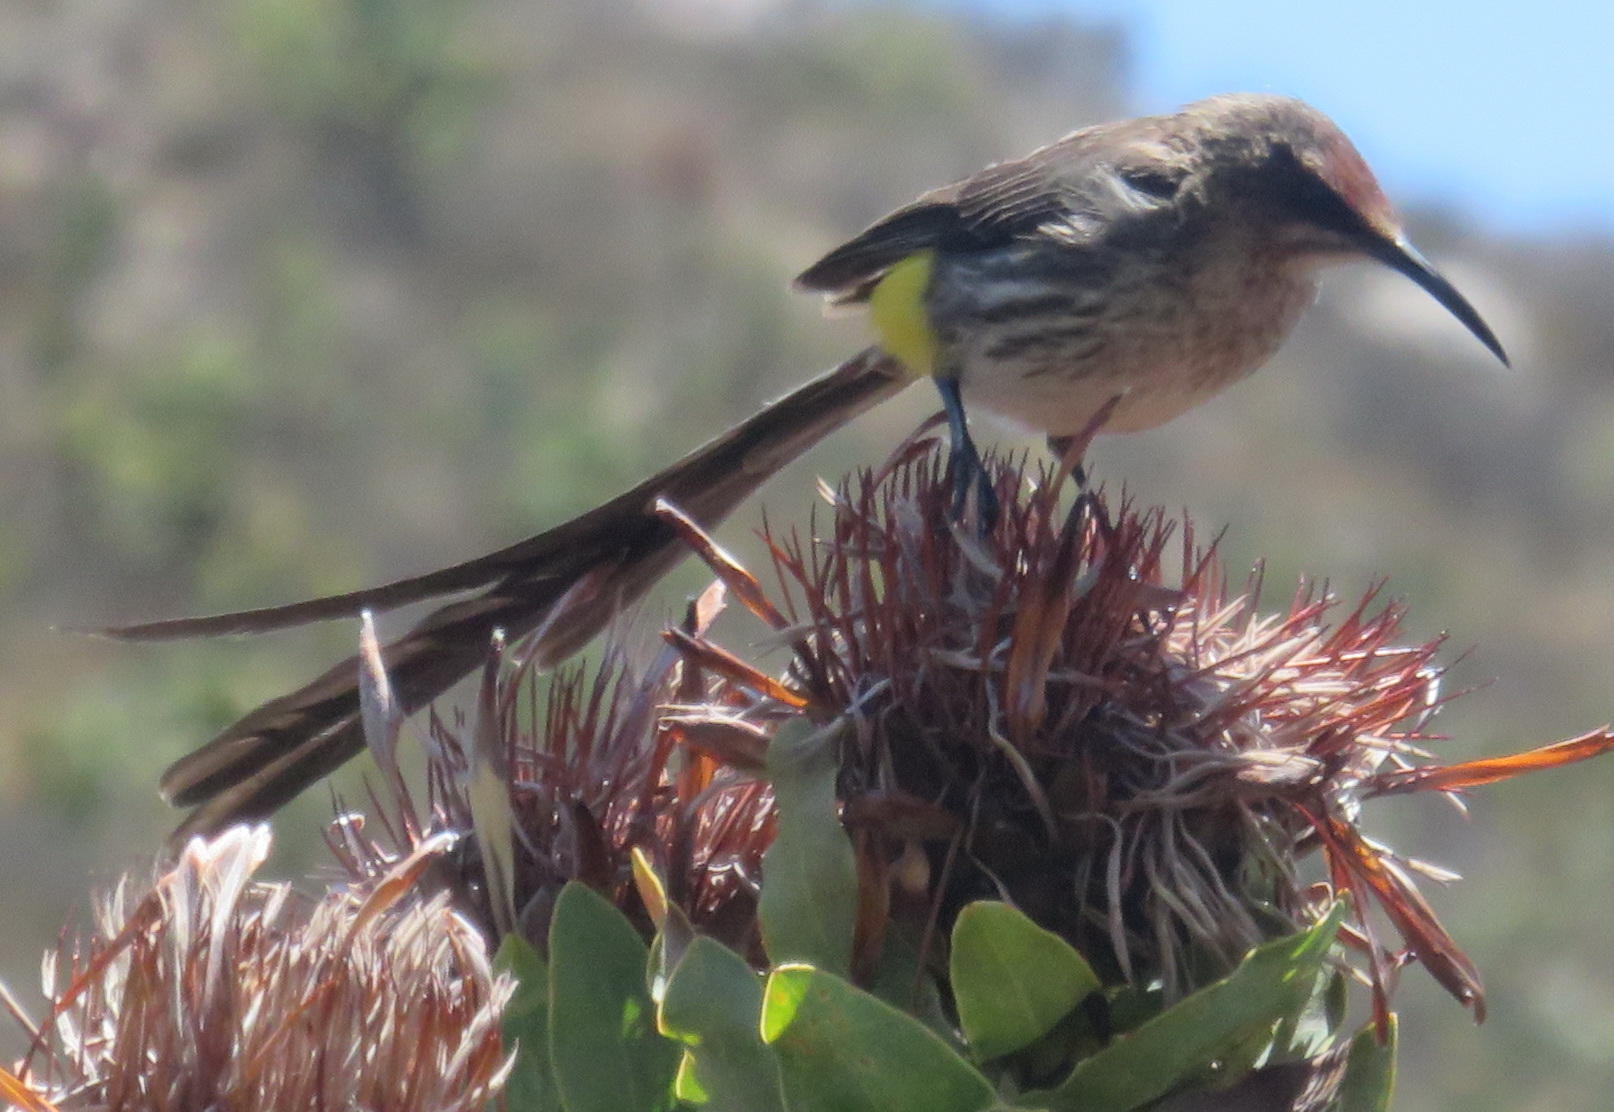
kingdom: Animalia
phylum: Chordata
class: Aves
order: Passeriformes
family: Promeropidae
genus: Promerops
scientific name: Promerops cafer
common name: Cape sugarbird
